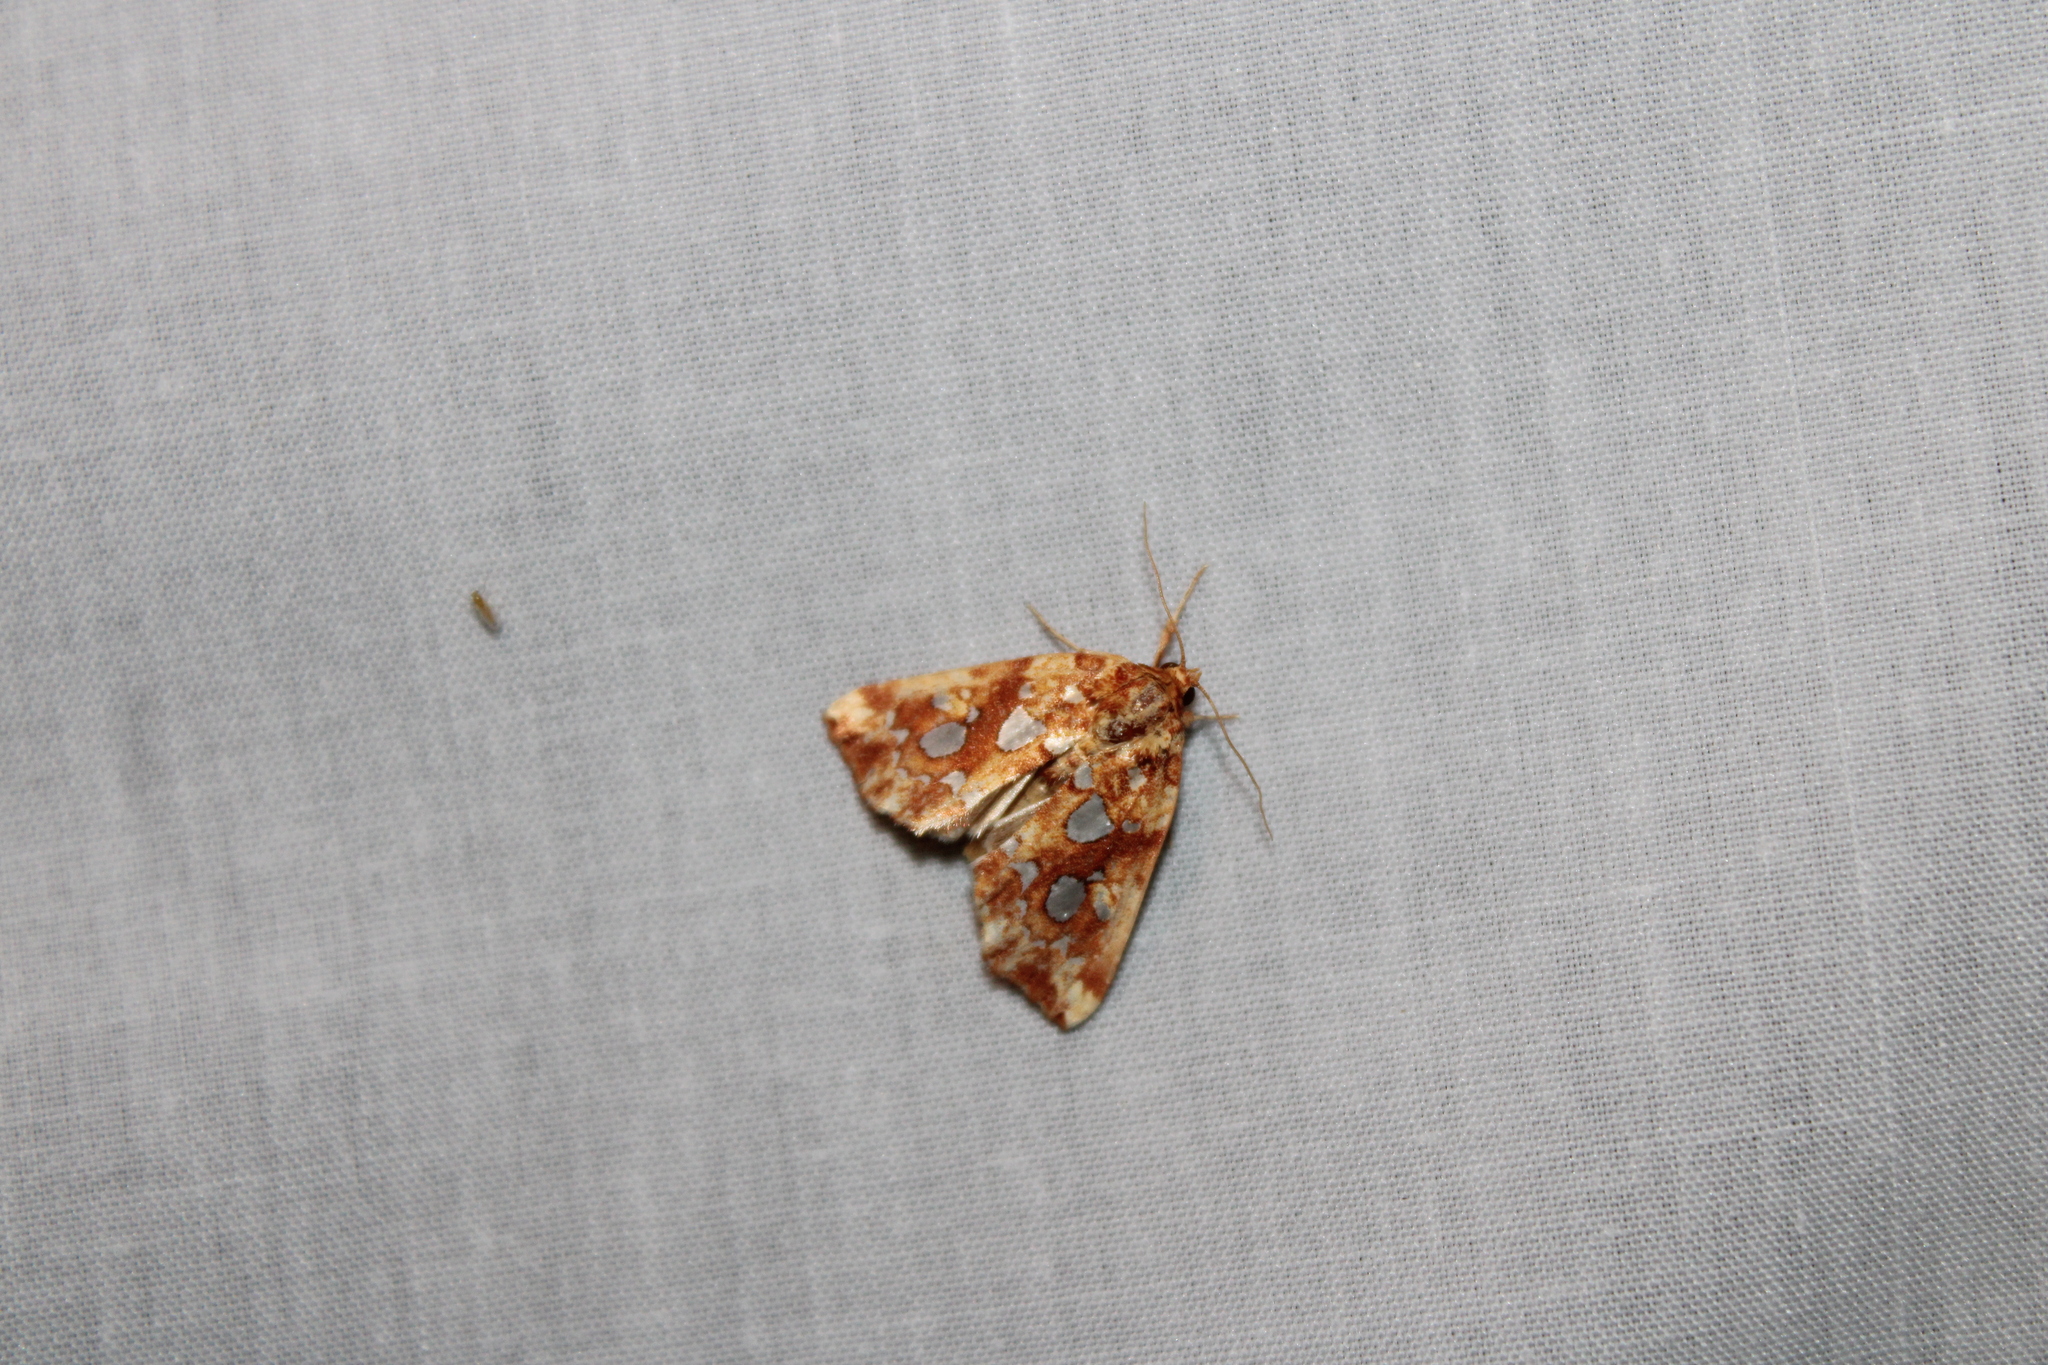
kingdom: Animalia
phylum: Arthropoda
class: Insecta
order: Lepidoptera
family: Noctuidae
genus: Callopistria
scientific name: Callopistria cordata
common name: Silver-spotted fern moth
